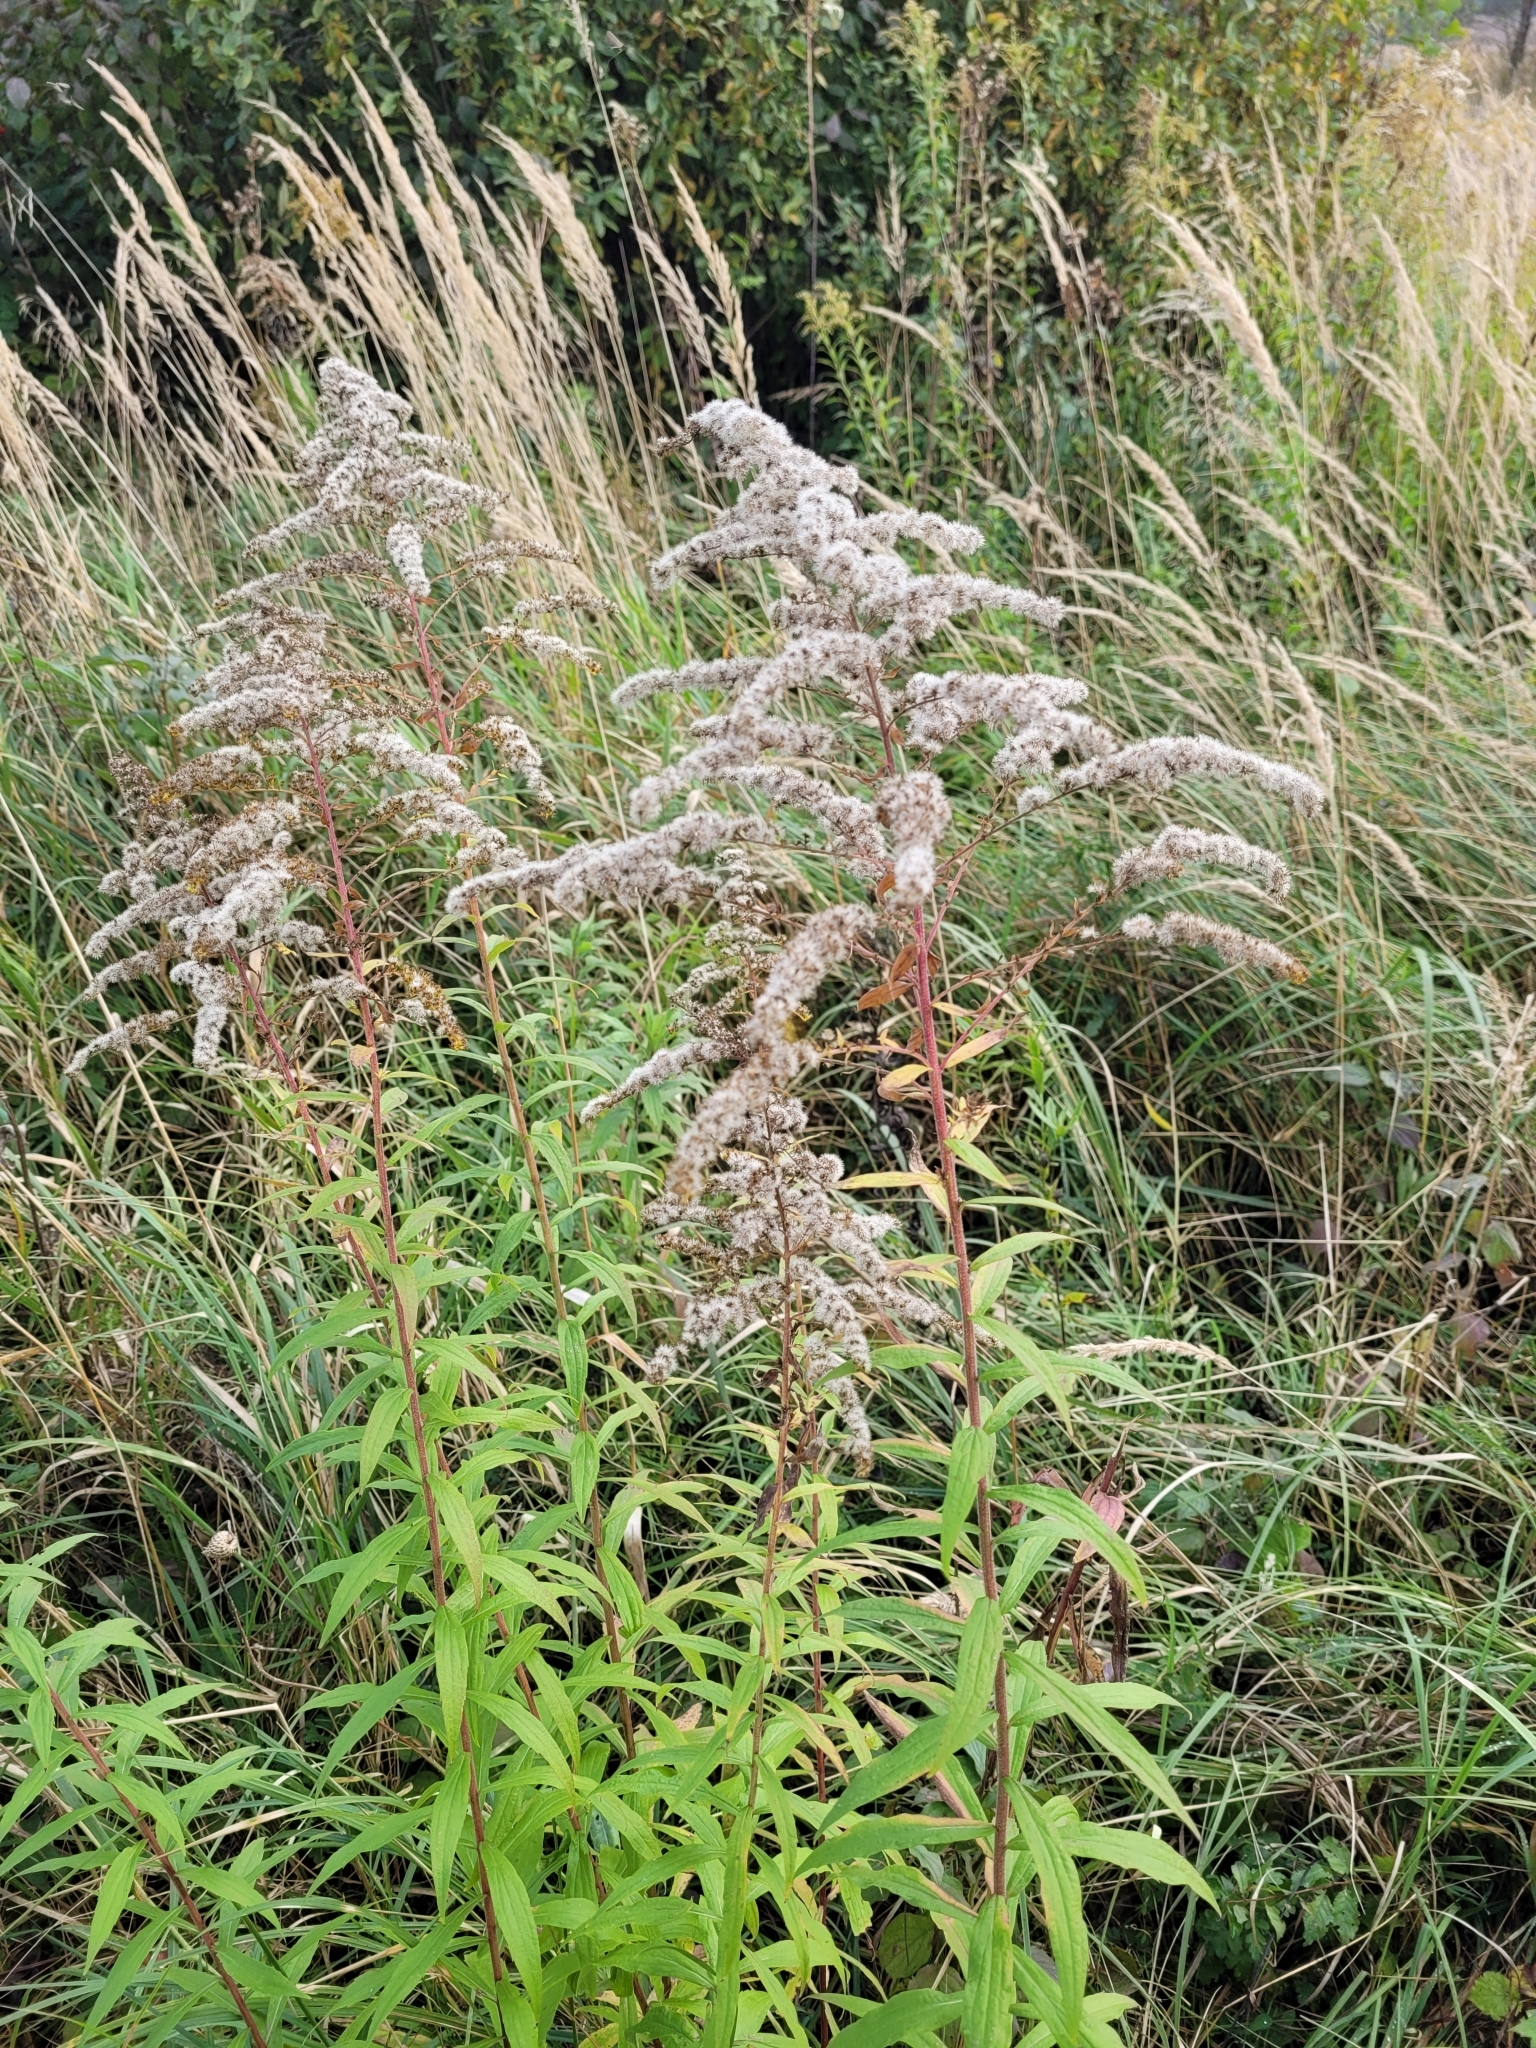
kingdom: Plantae
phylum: Tracheophyta
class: Magnoliopsida
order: Asterales
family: Asteraceae
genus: Solidago
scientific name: Solidago canadensis
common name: Canada goldenrod
